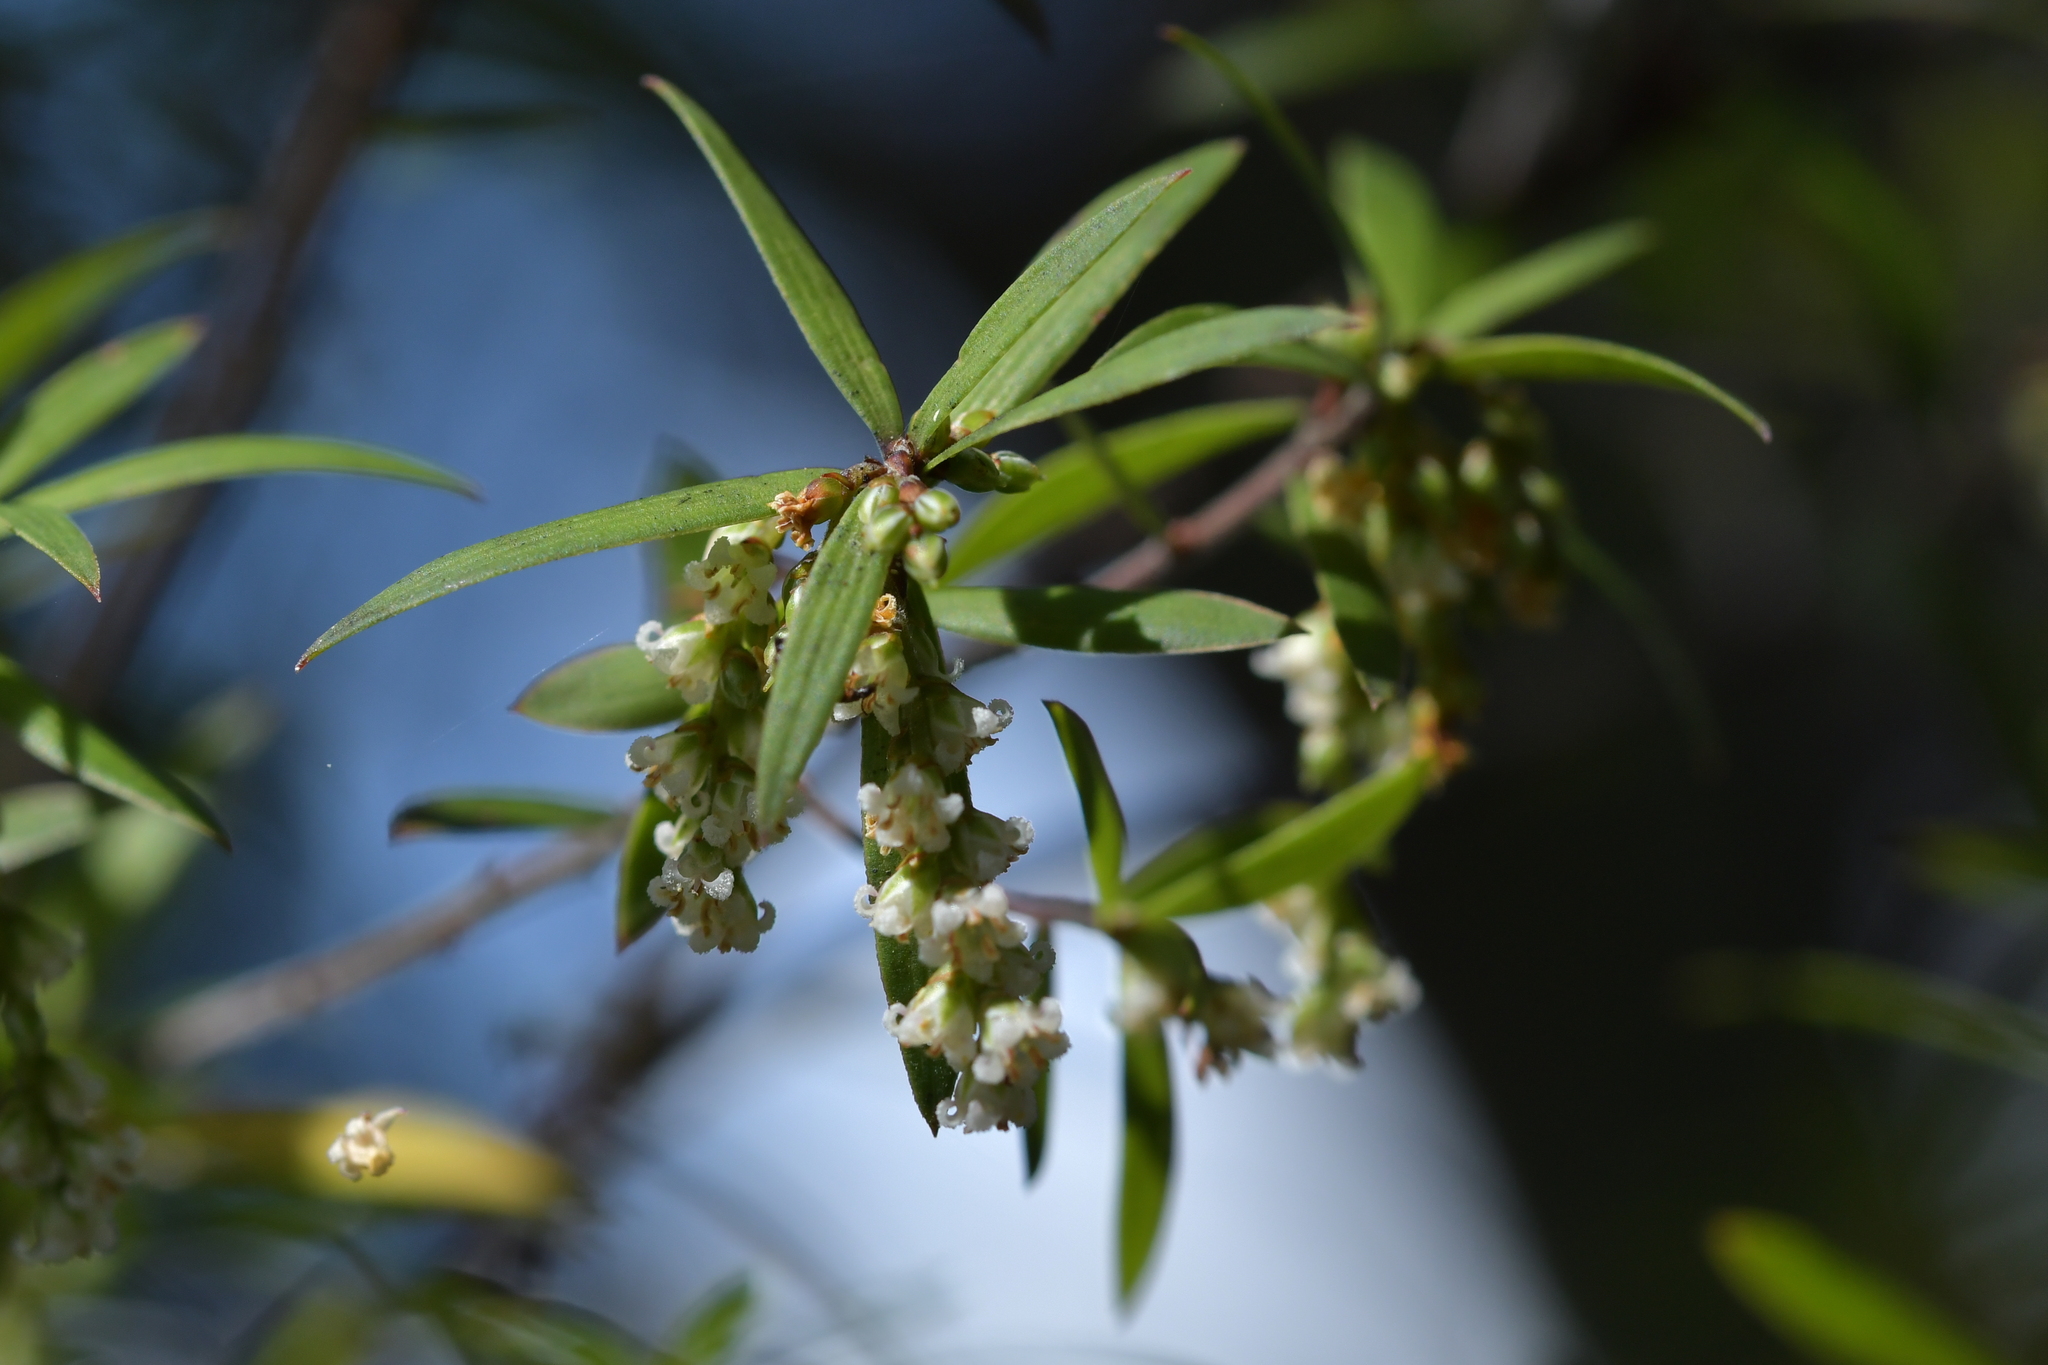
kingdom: Plantae
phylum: Tracheophyta
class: Magnoliopsida
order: Ericales
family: Ericaceae
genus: Leucopogon
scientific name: Leucopogon fasciculatus
